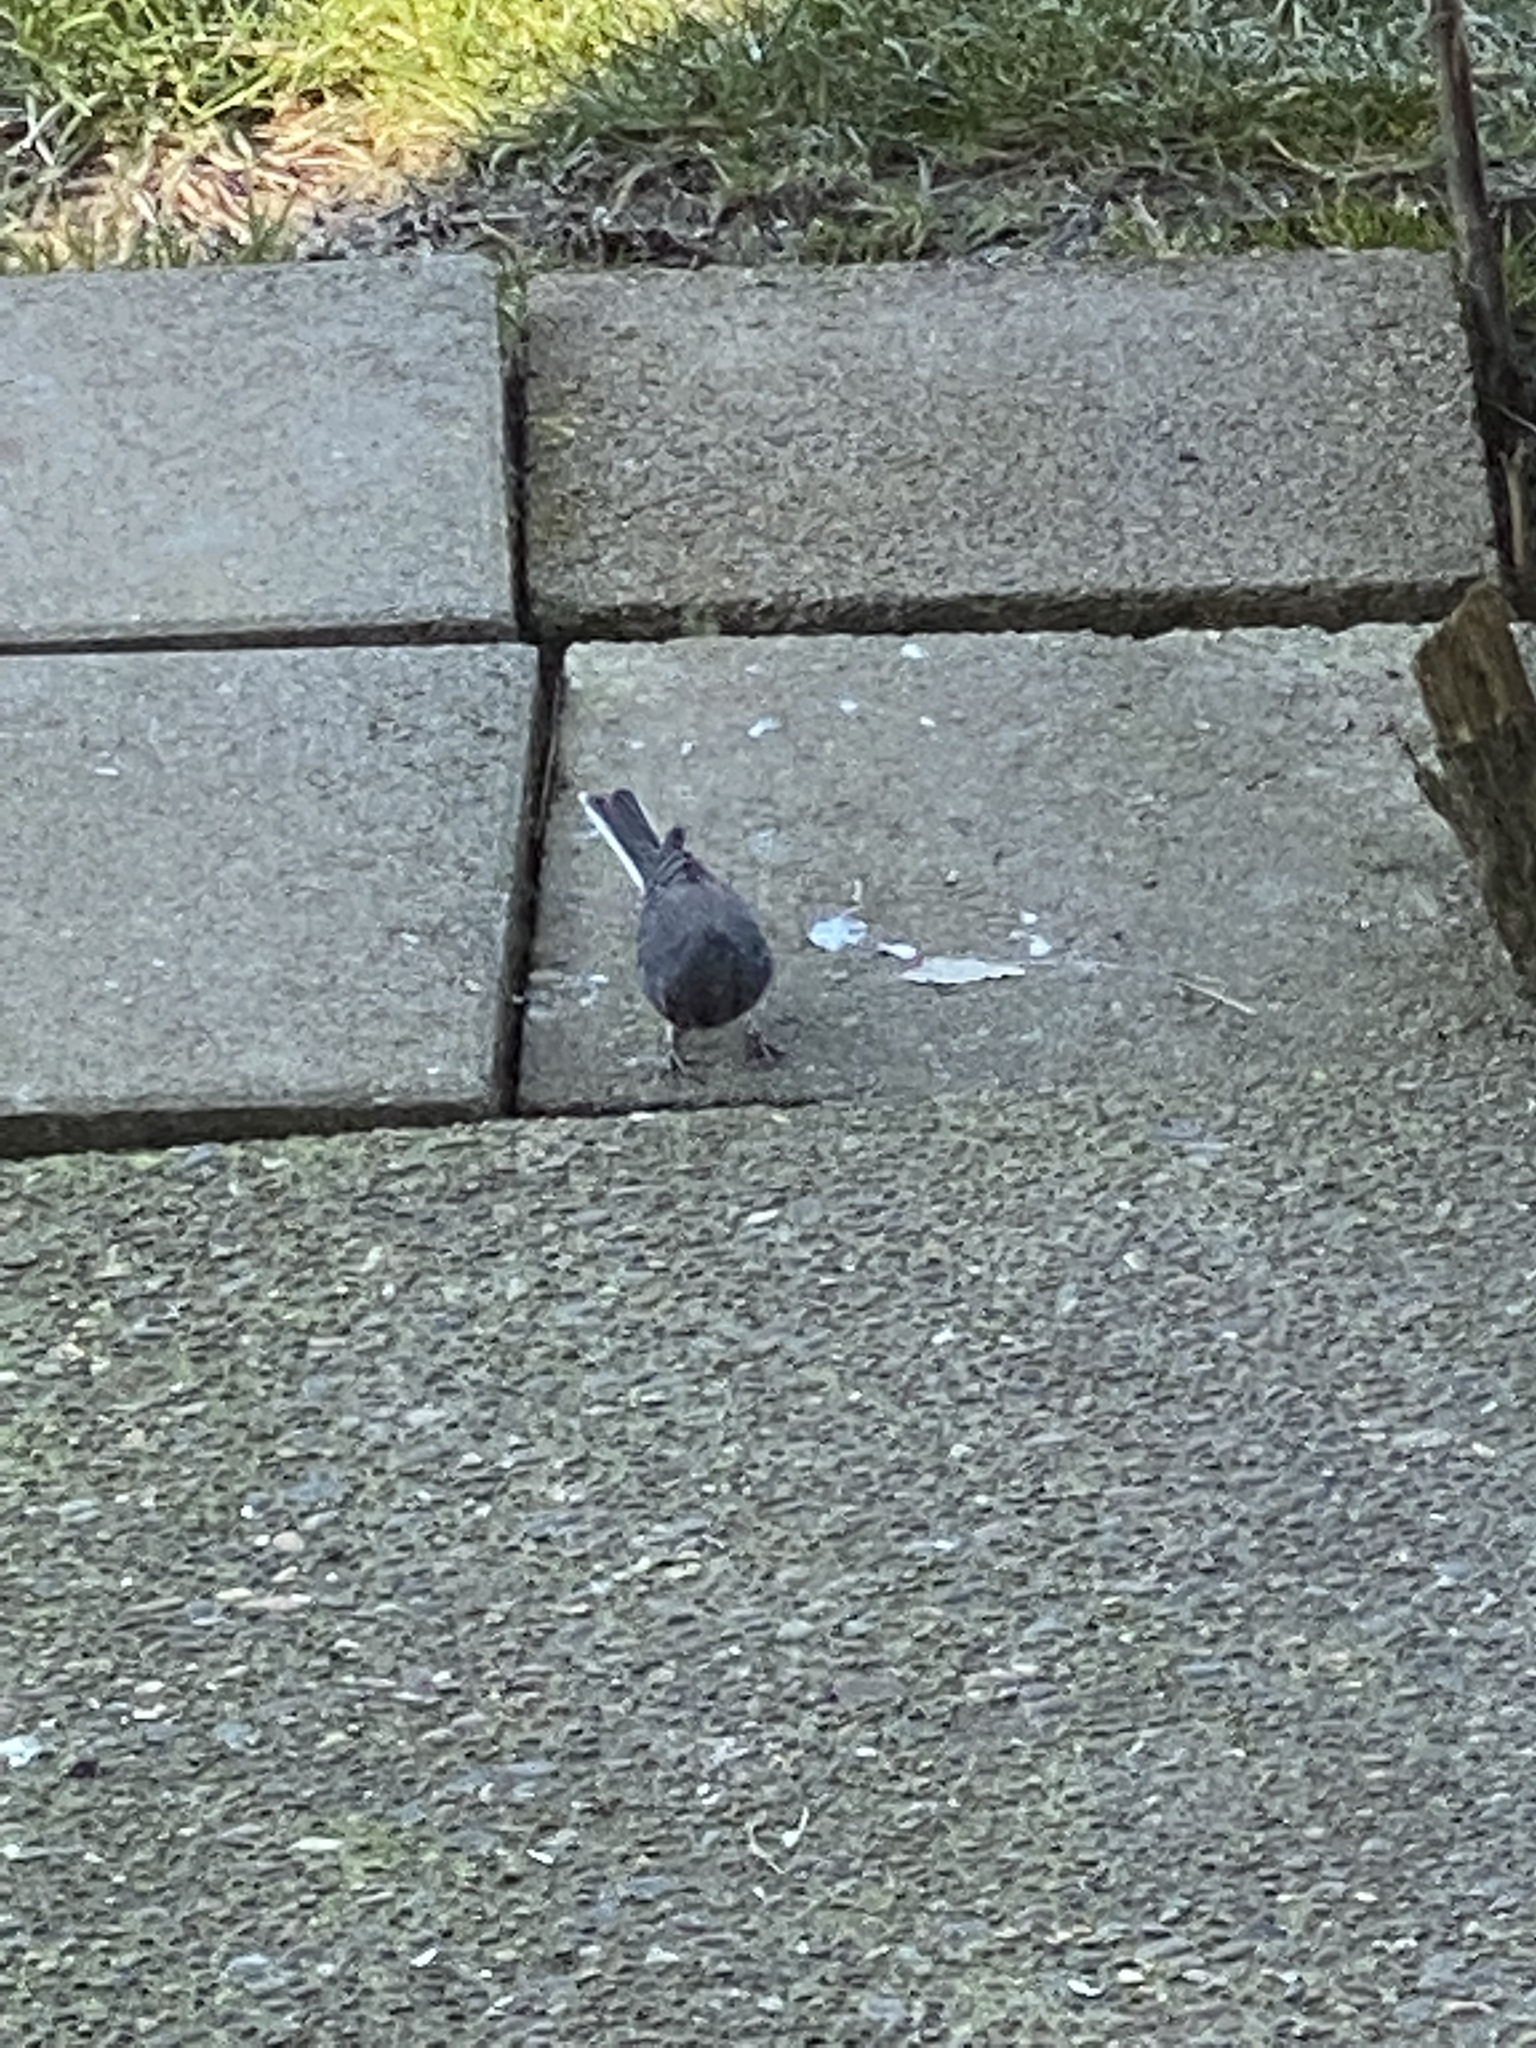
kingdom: Animalia
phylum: Chordata
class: Aves
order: Passeriformes
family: Passerellidae
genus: Junco
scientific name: Junco hyemalis
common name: Dark-eyed junco
